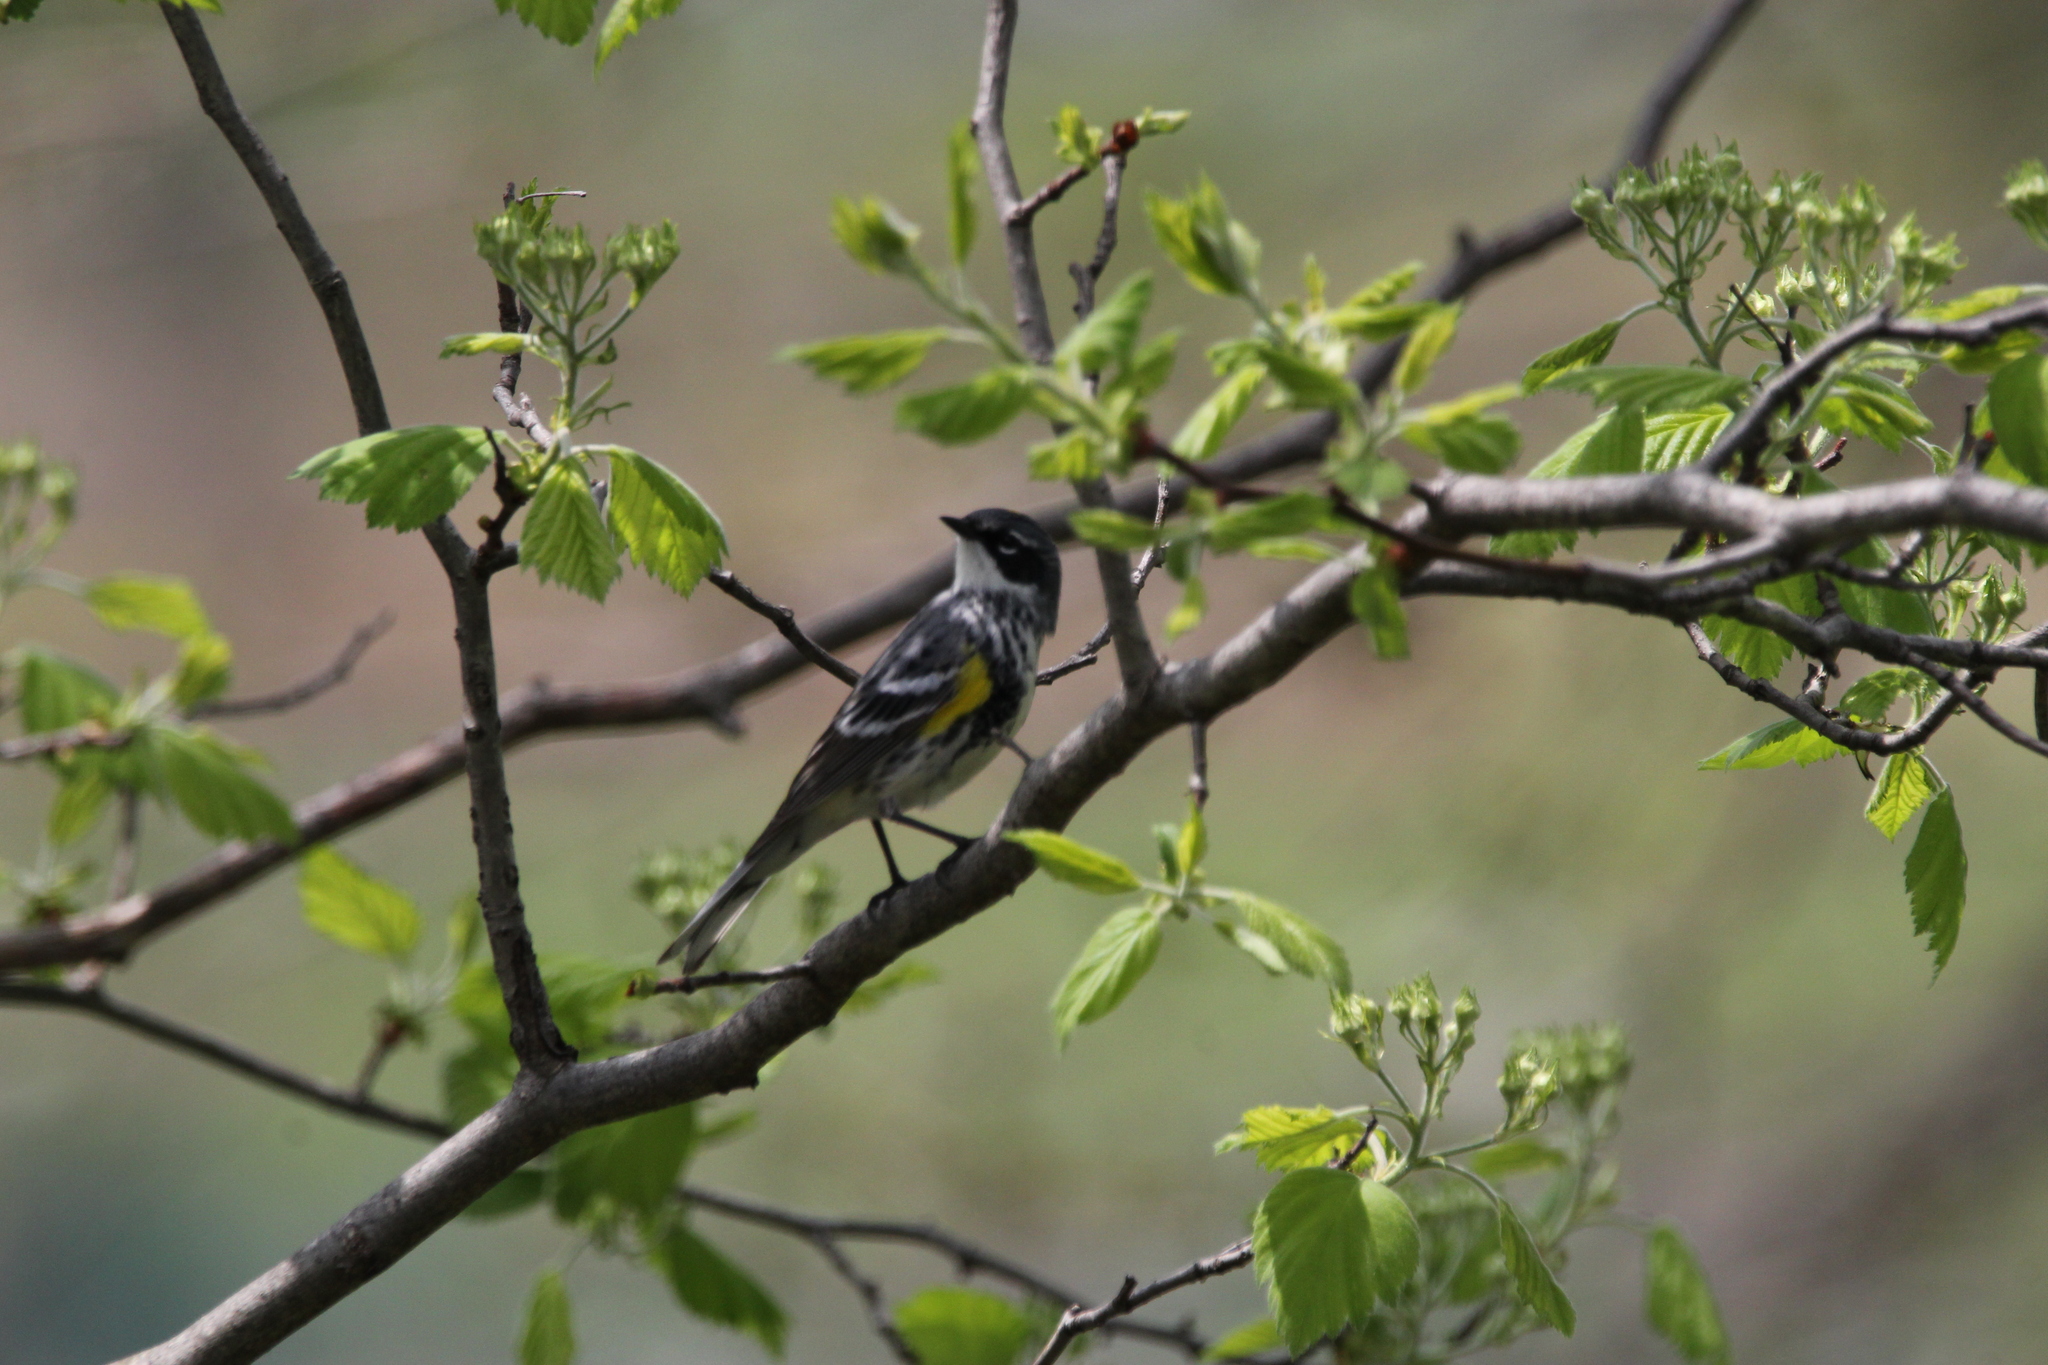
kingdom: Animalia
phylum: Chordata
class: Aves
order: Passeriformes
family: Parulidae
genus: Setophaga
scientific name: Setophaga coronata
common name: Myrtle warbler
